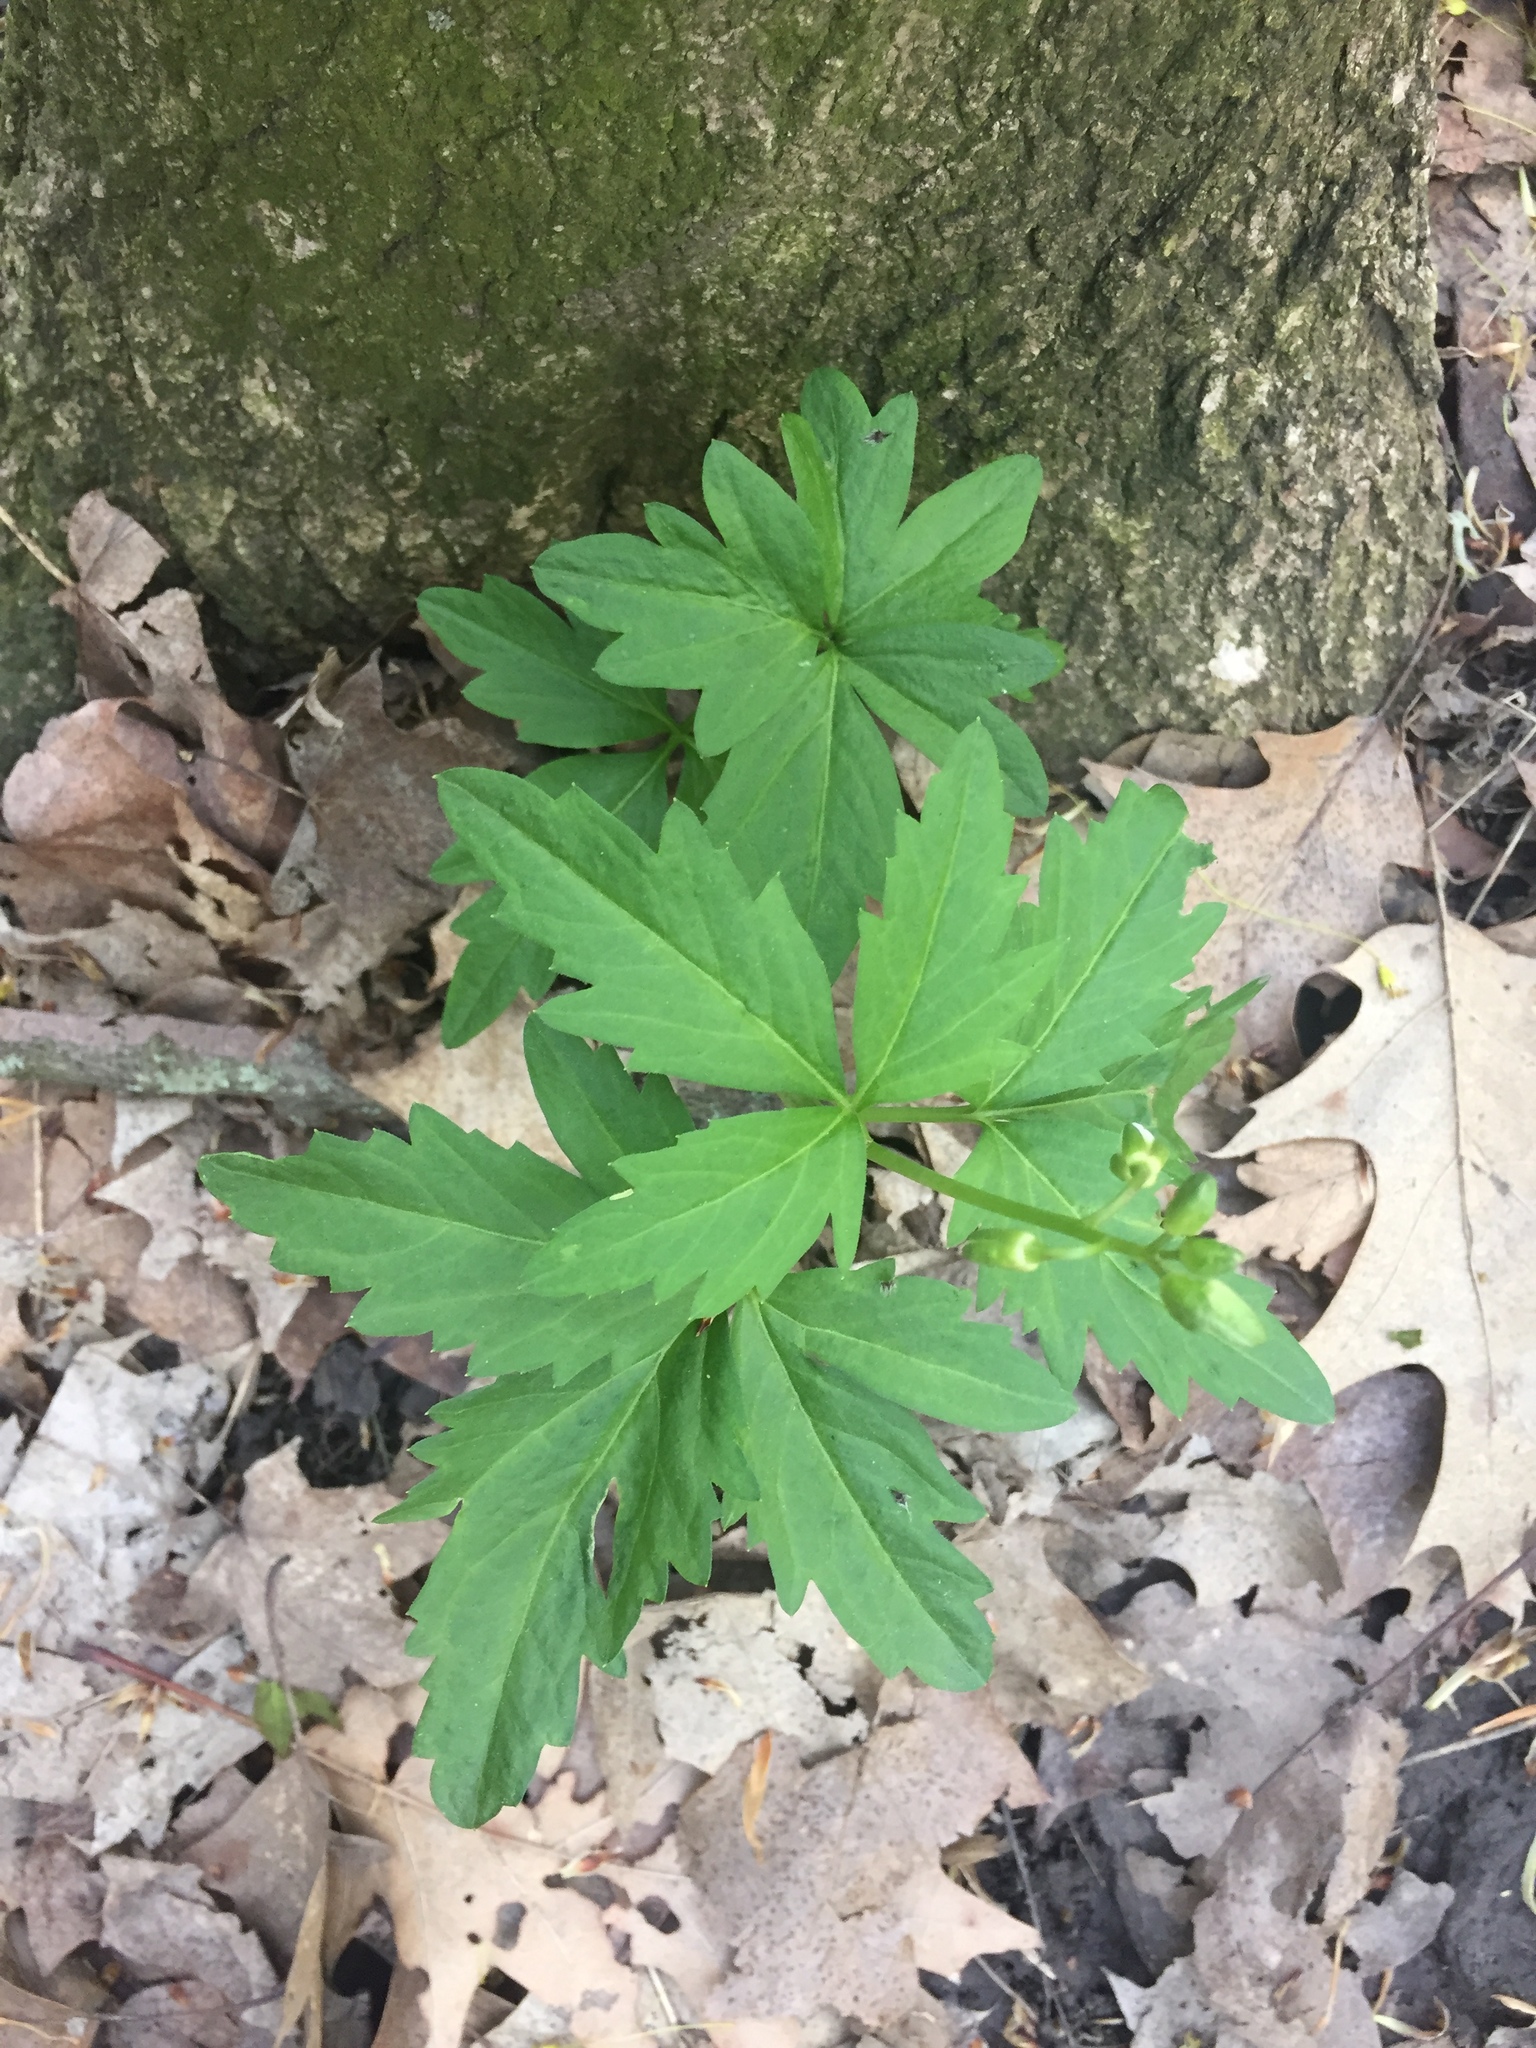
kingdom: Plantae
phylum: Tracheophyta
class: Magnoliopsida
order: Brassicales
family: Brassicaceae
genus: Cardamine
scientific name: Cardamine diphylla
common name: Broad-leaved toothwort
